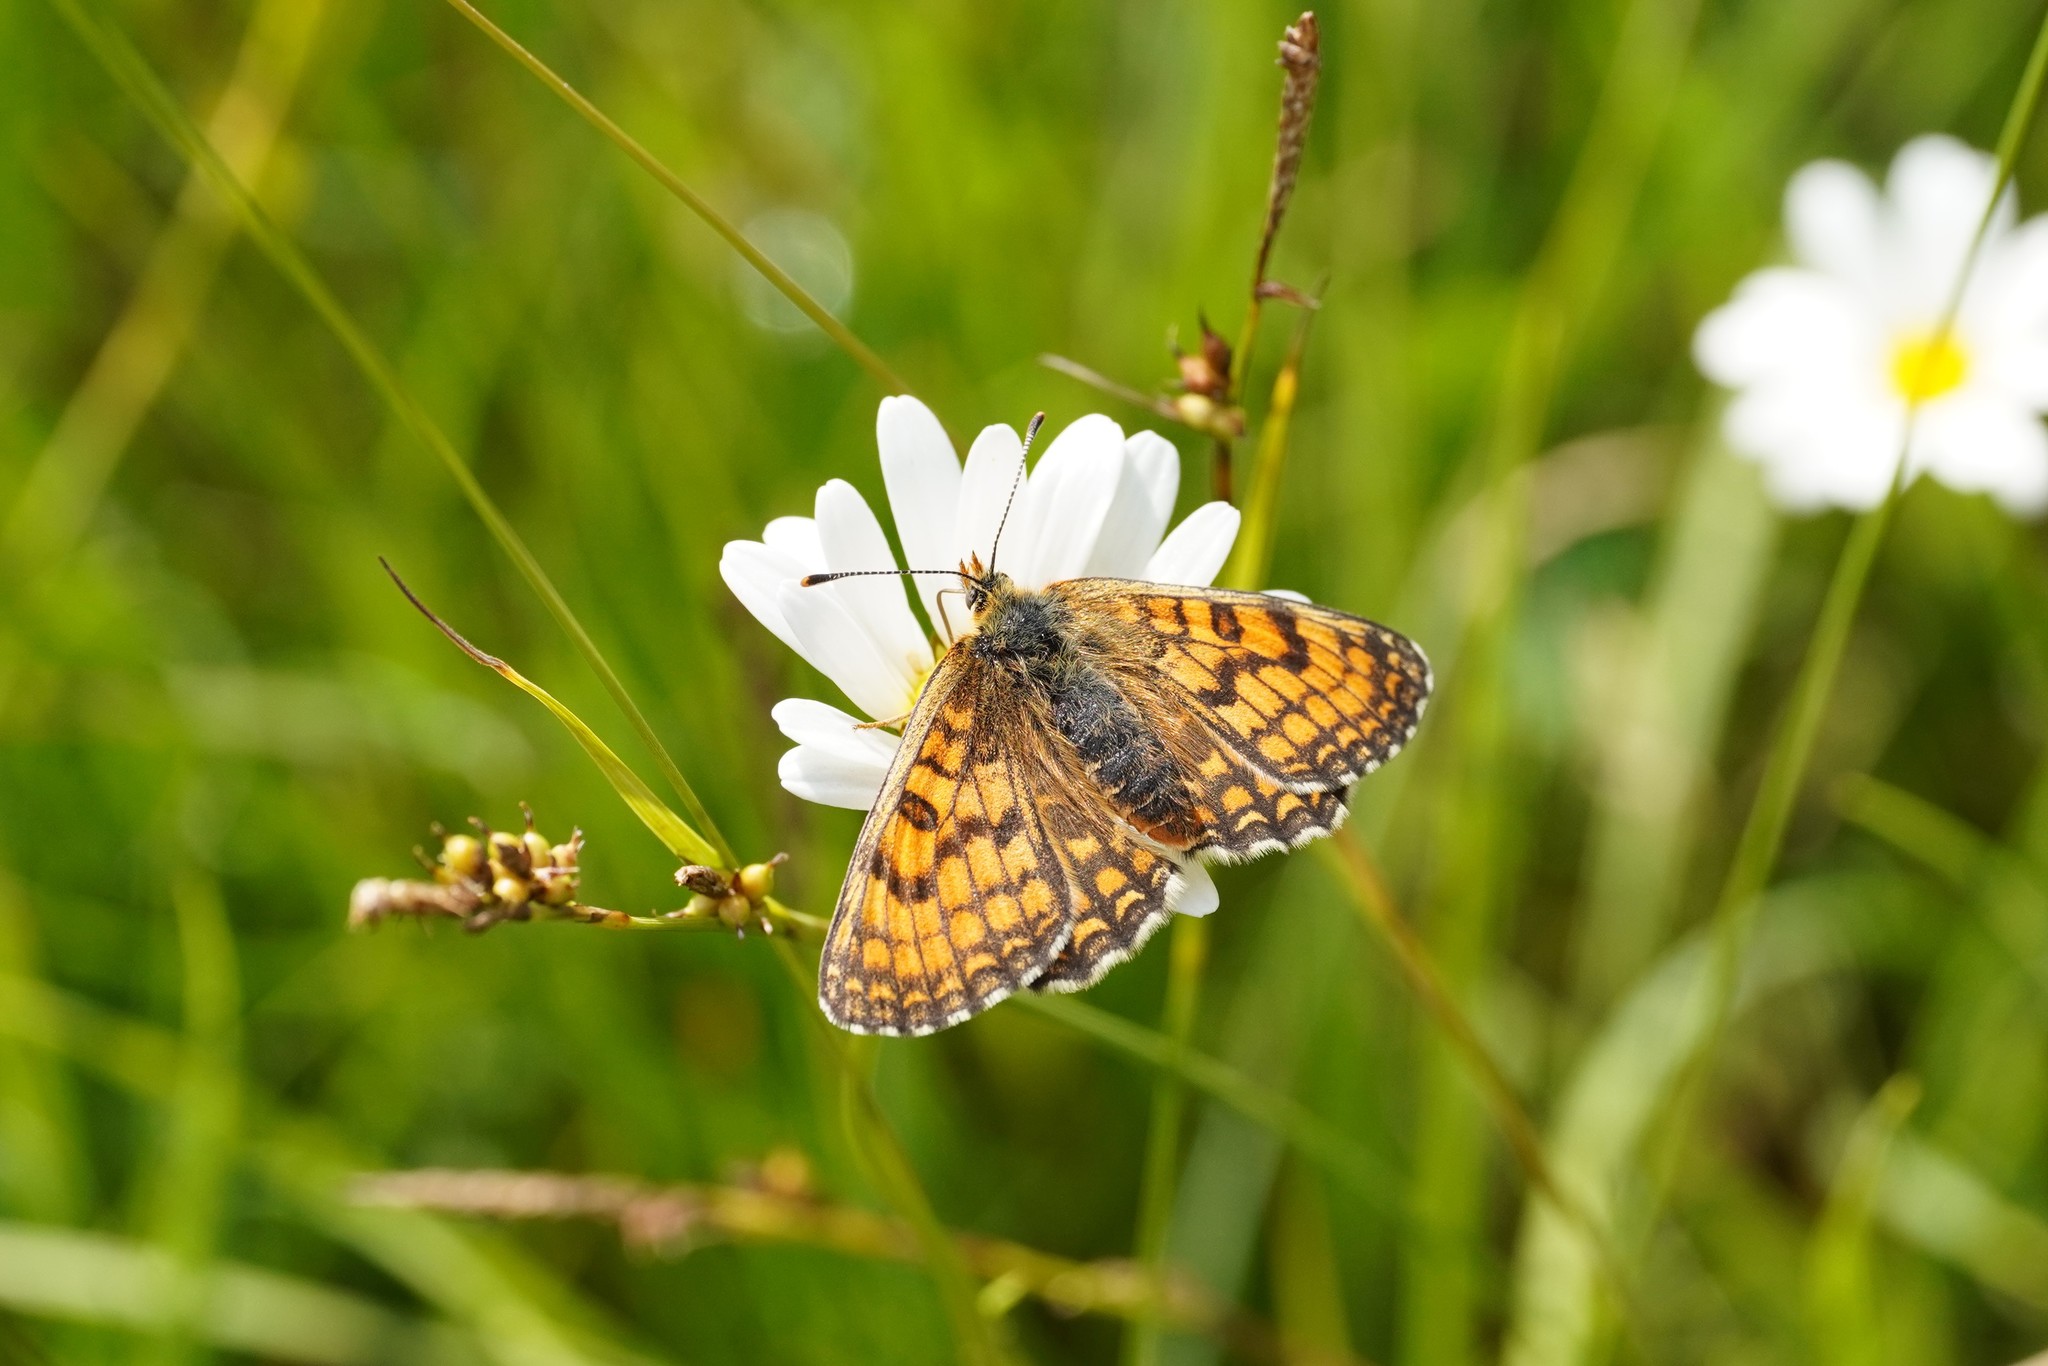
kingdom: Animalia
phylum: Arthropoda
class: Insecta
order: Lepidoptera
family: Nymphalidae
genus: Mellicta
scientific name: Mellicta parthenoides
